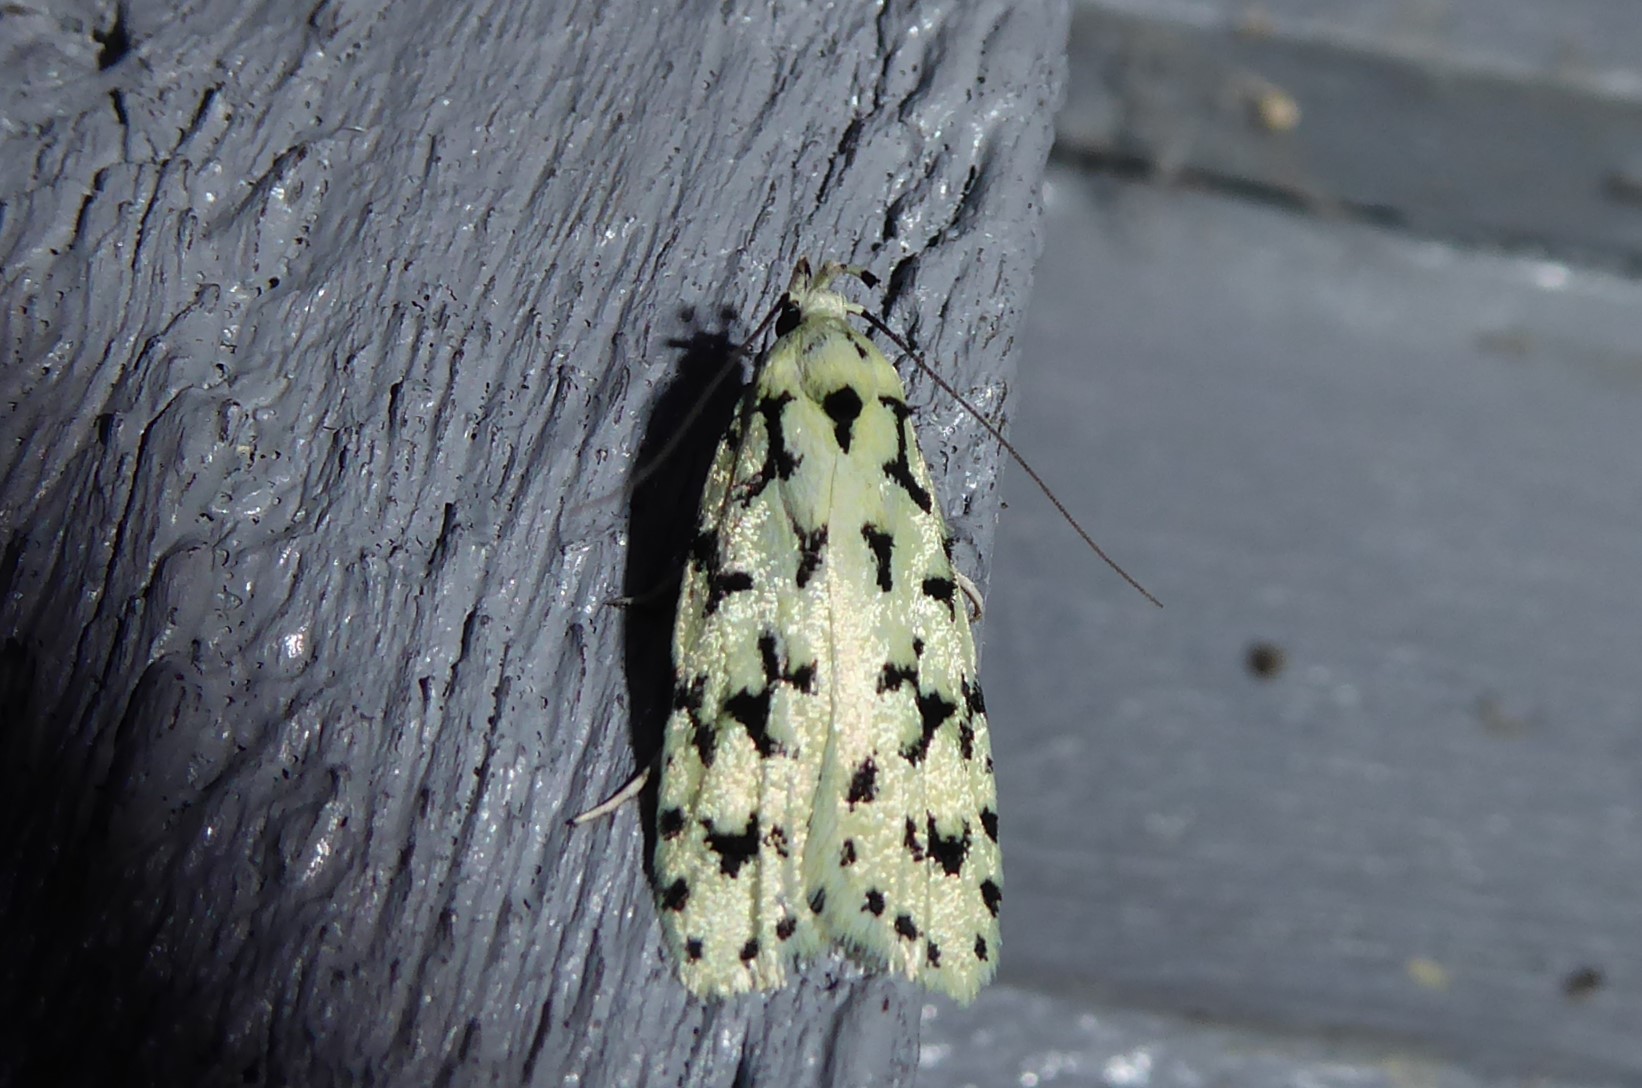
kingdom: Animalia
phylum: Arthropoda
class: Insecta
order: Lepidoptera
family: Oecophoridae
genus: Izatha
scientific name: Izatha huttoni
